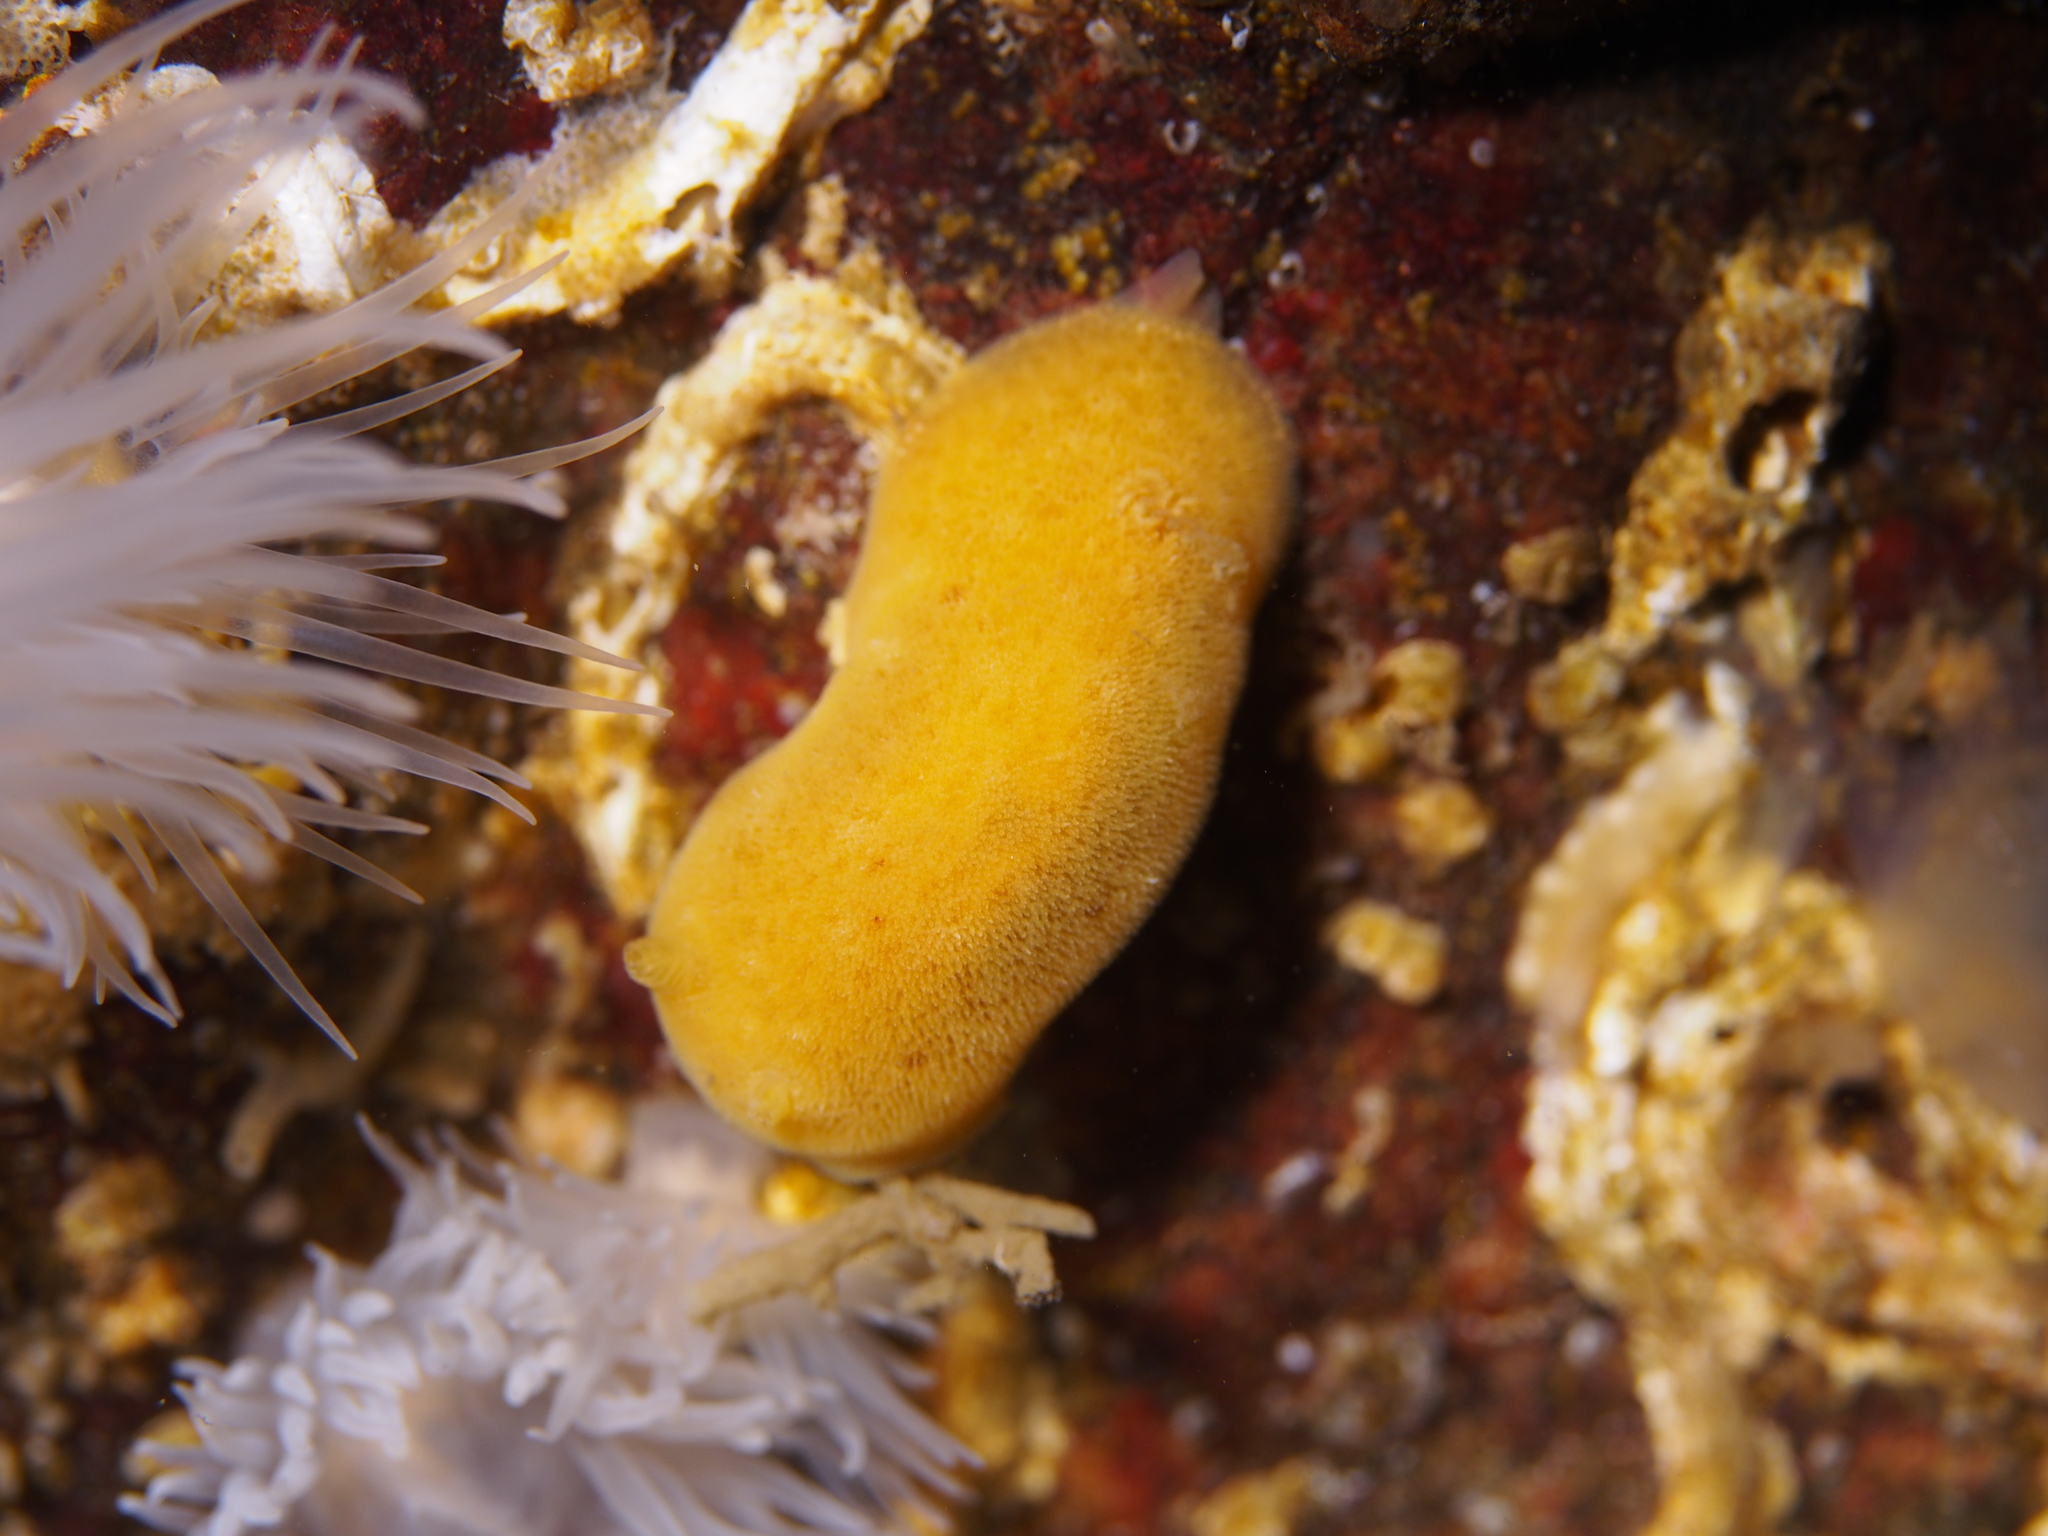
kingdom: Animalia
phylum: Mollusca
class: Gastropoda
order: Nudibranchia
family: Discodorididae
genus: Jorunna
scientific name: Jorunna tomentosa
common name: Grey sea slug
